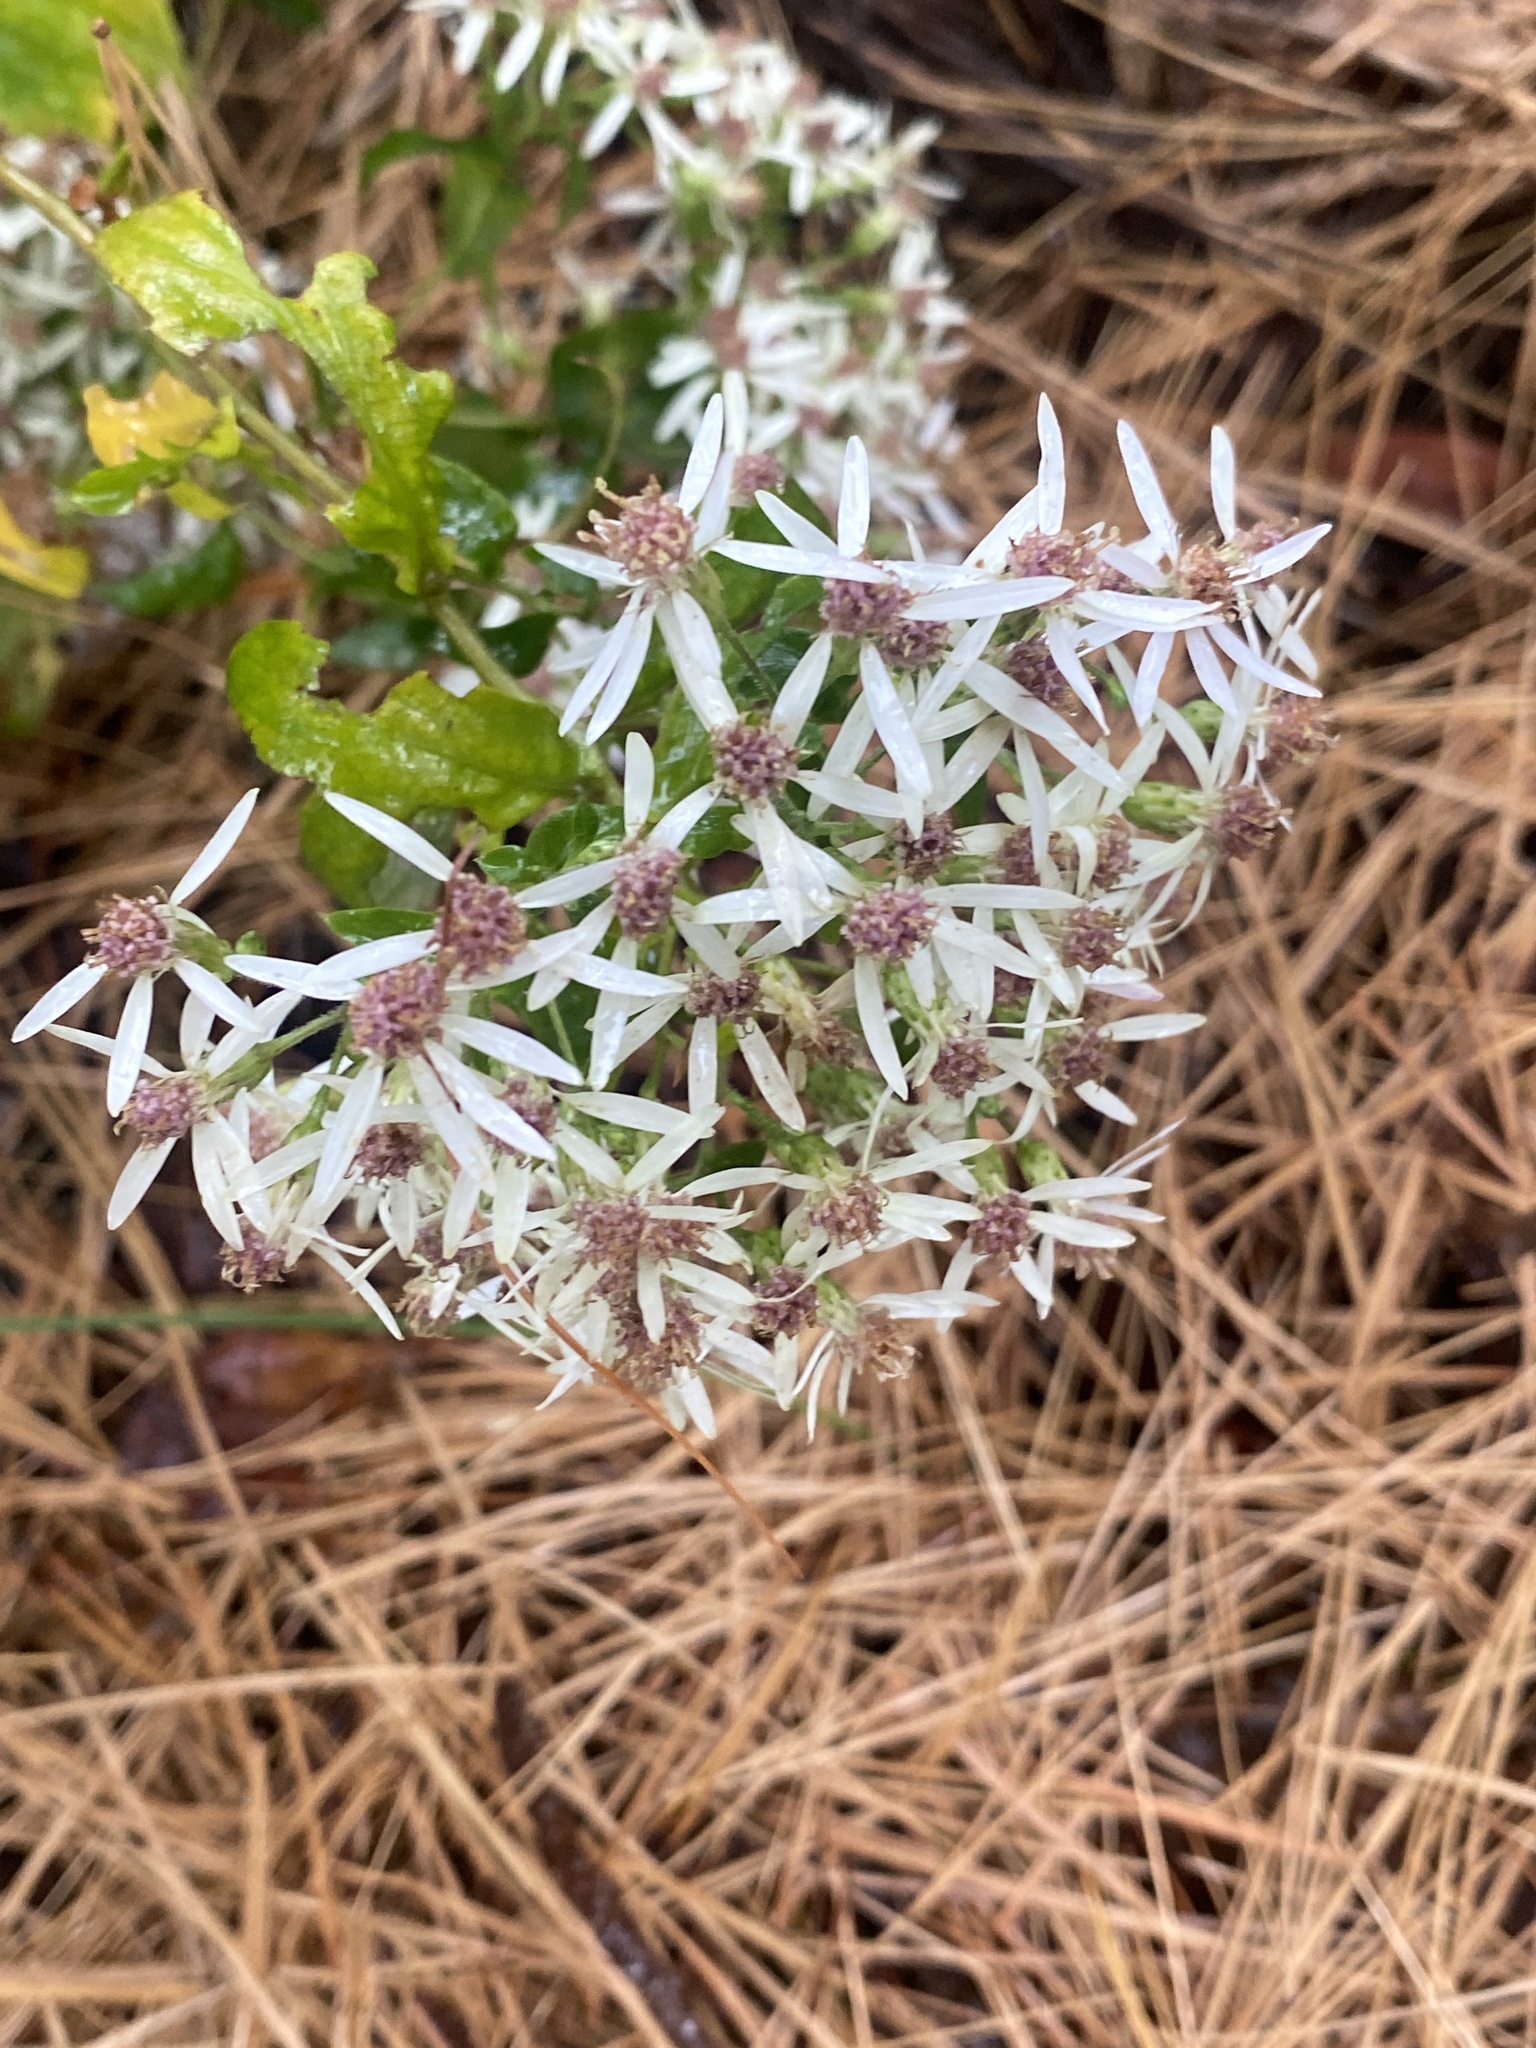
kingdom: Plantae
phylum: Tracheophyta
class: Magnoliopsida
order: Asterales
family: Asteraceae
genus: Eurybia
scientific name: Eurybia divaricata
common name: White wood aster
